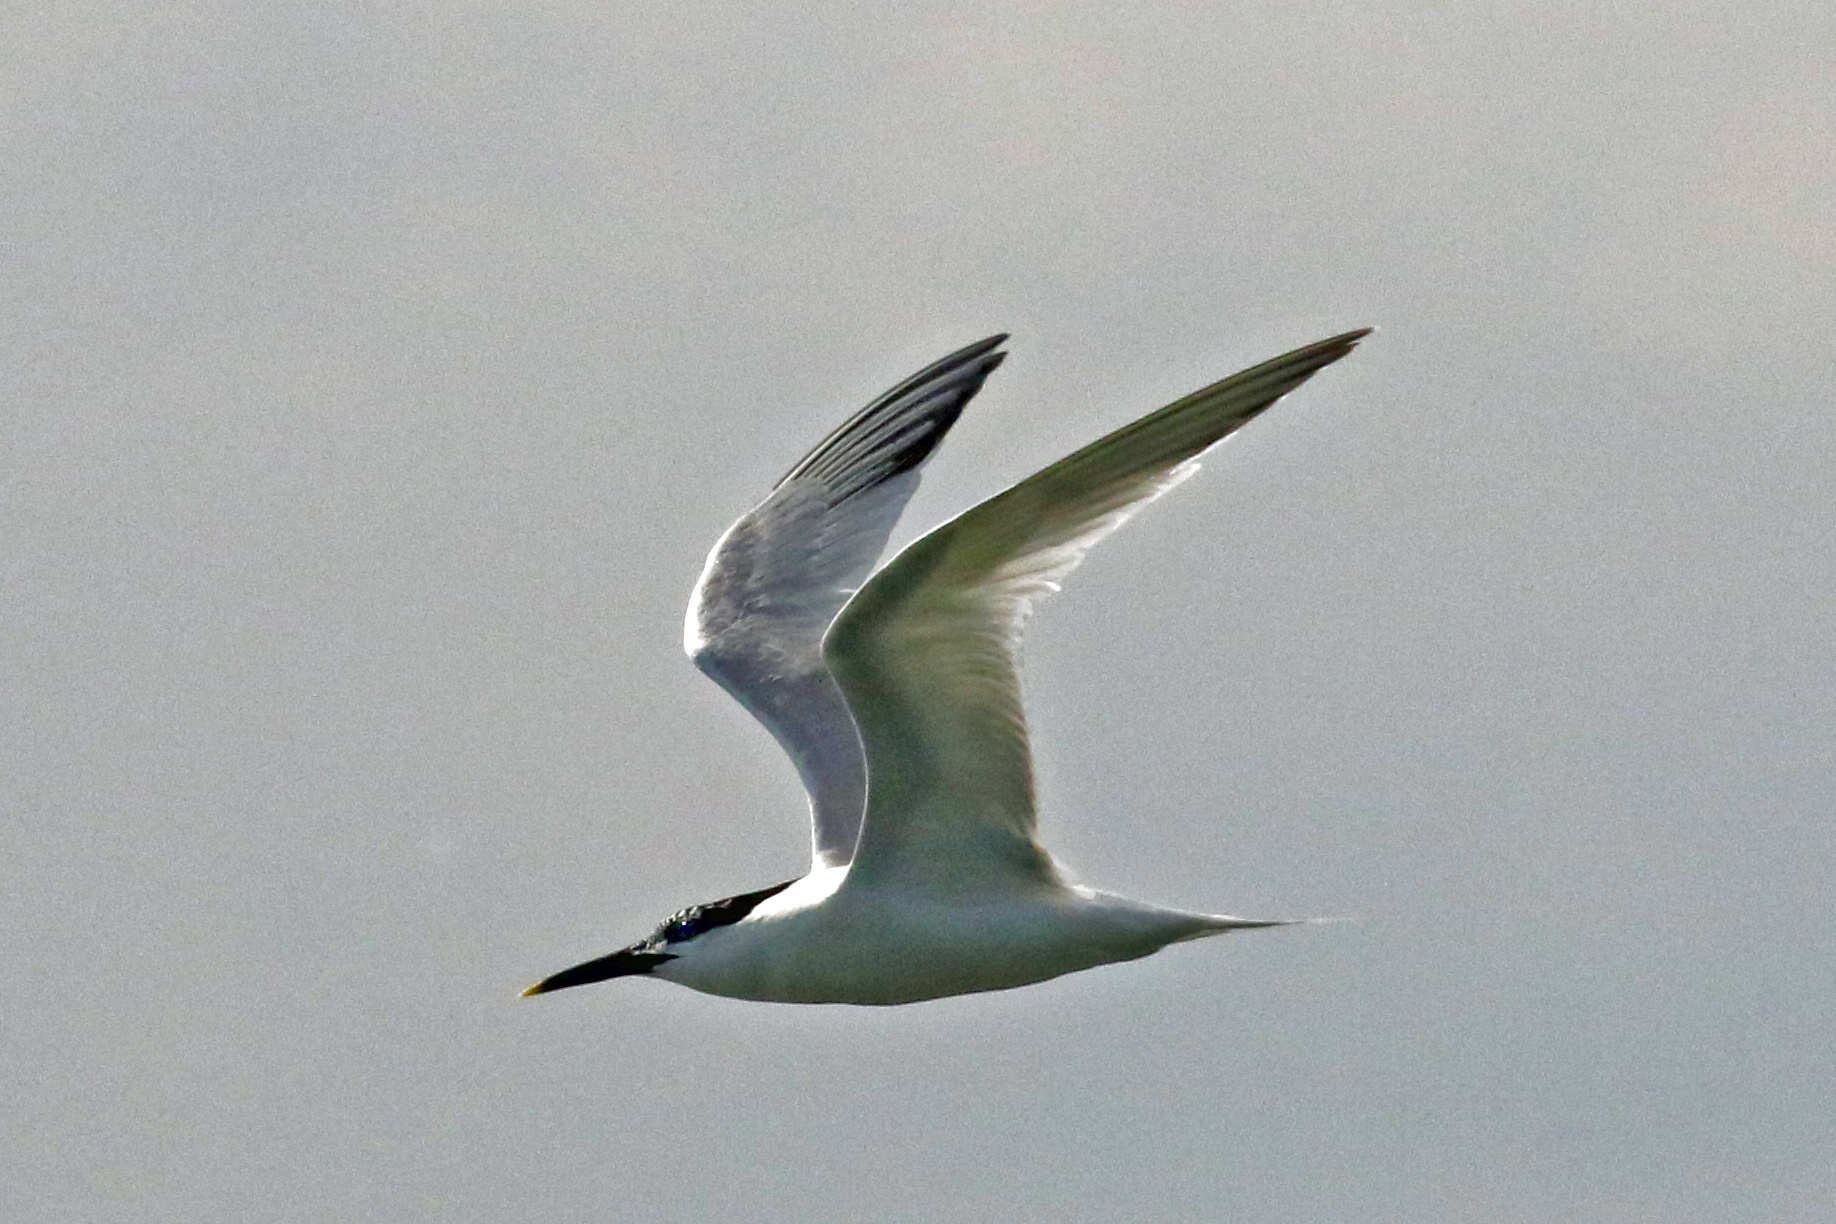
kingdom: Animalia
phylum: Chordata
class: Aves
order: Charadriiformes
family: Laridae
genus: Thalasseus
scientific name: Thalasseus sandvicensis
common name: Sandwich tern
